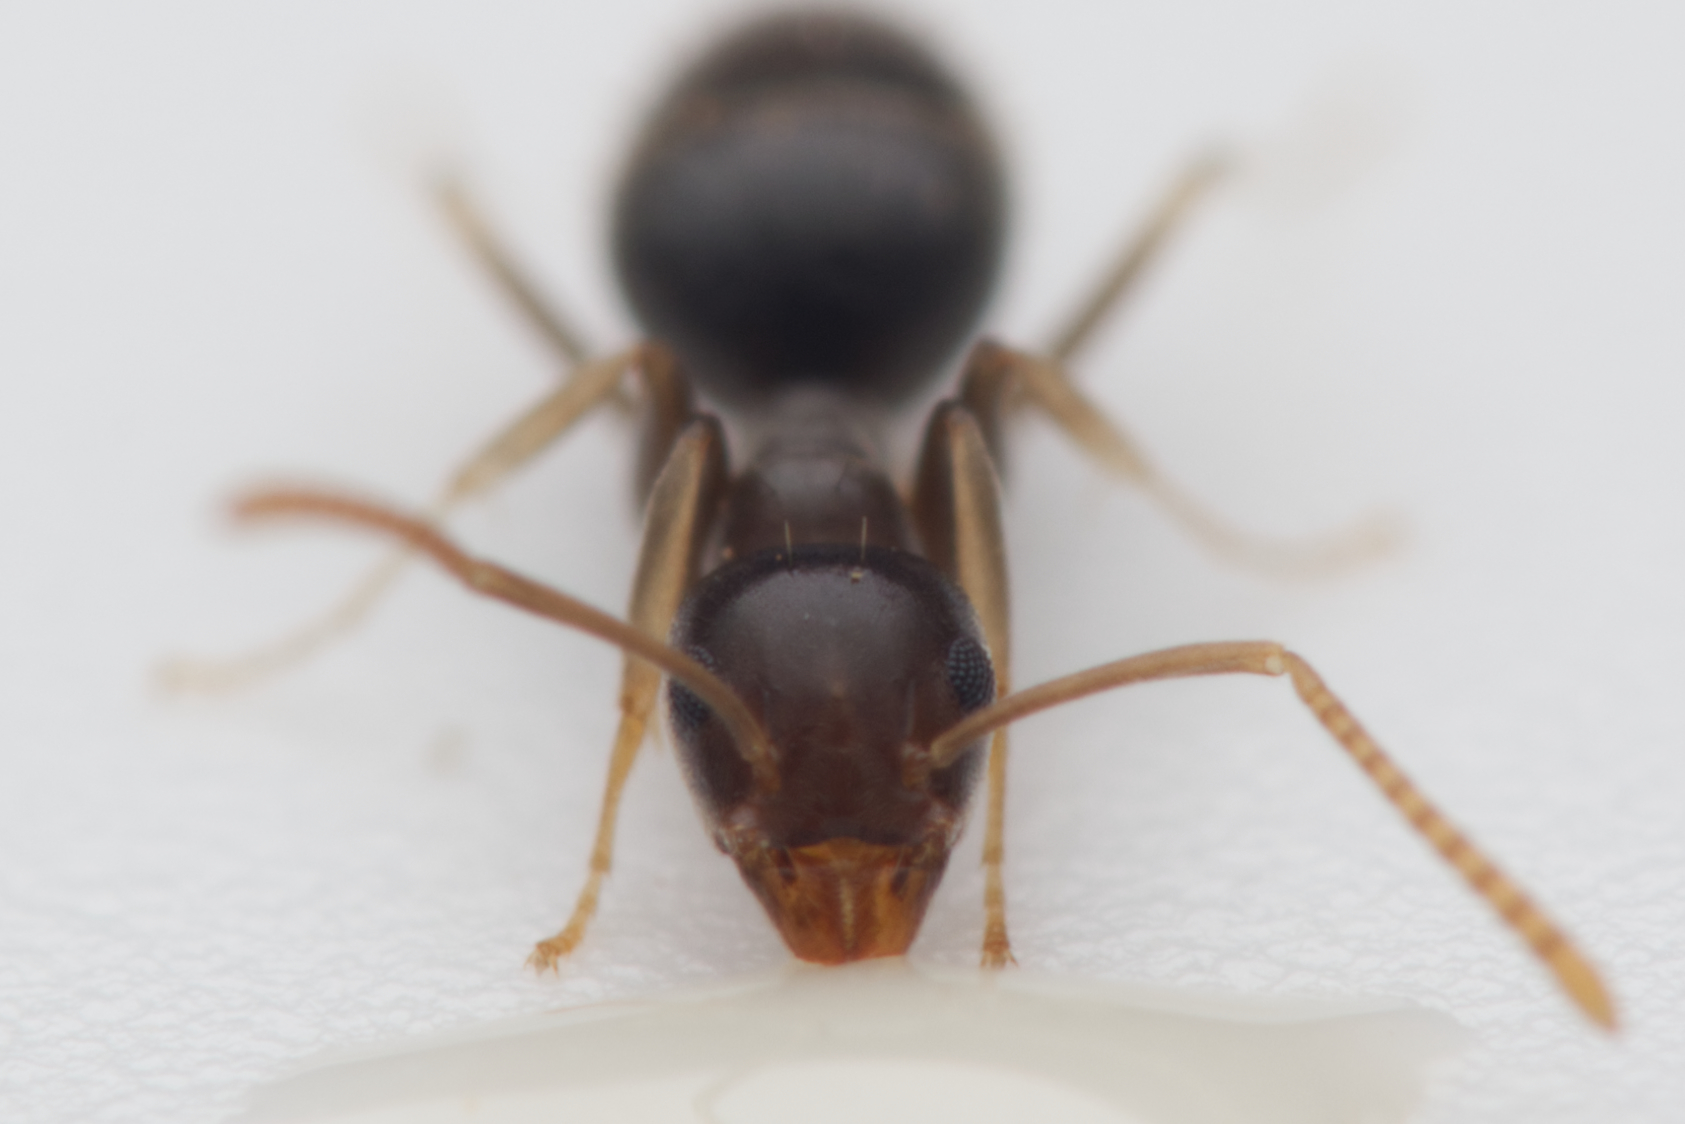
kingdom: Animalia
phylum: Arthropoda
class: Insecta
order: Hymenoptera
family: Formicidae
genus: Technomyrmex
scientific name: Technomyrmex
